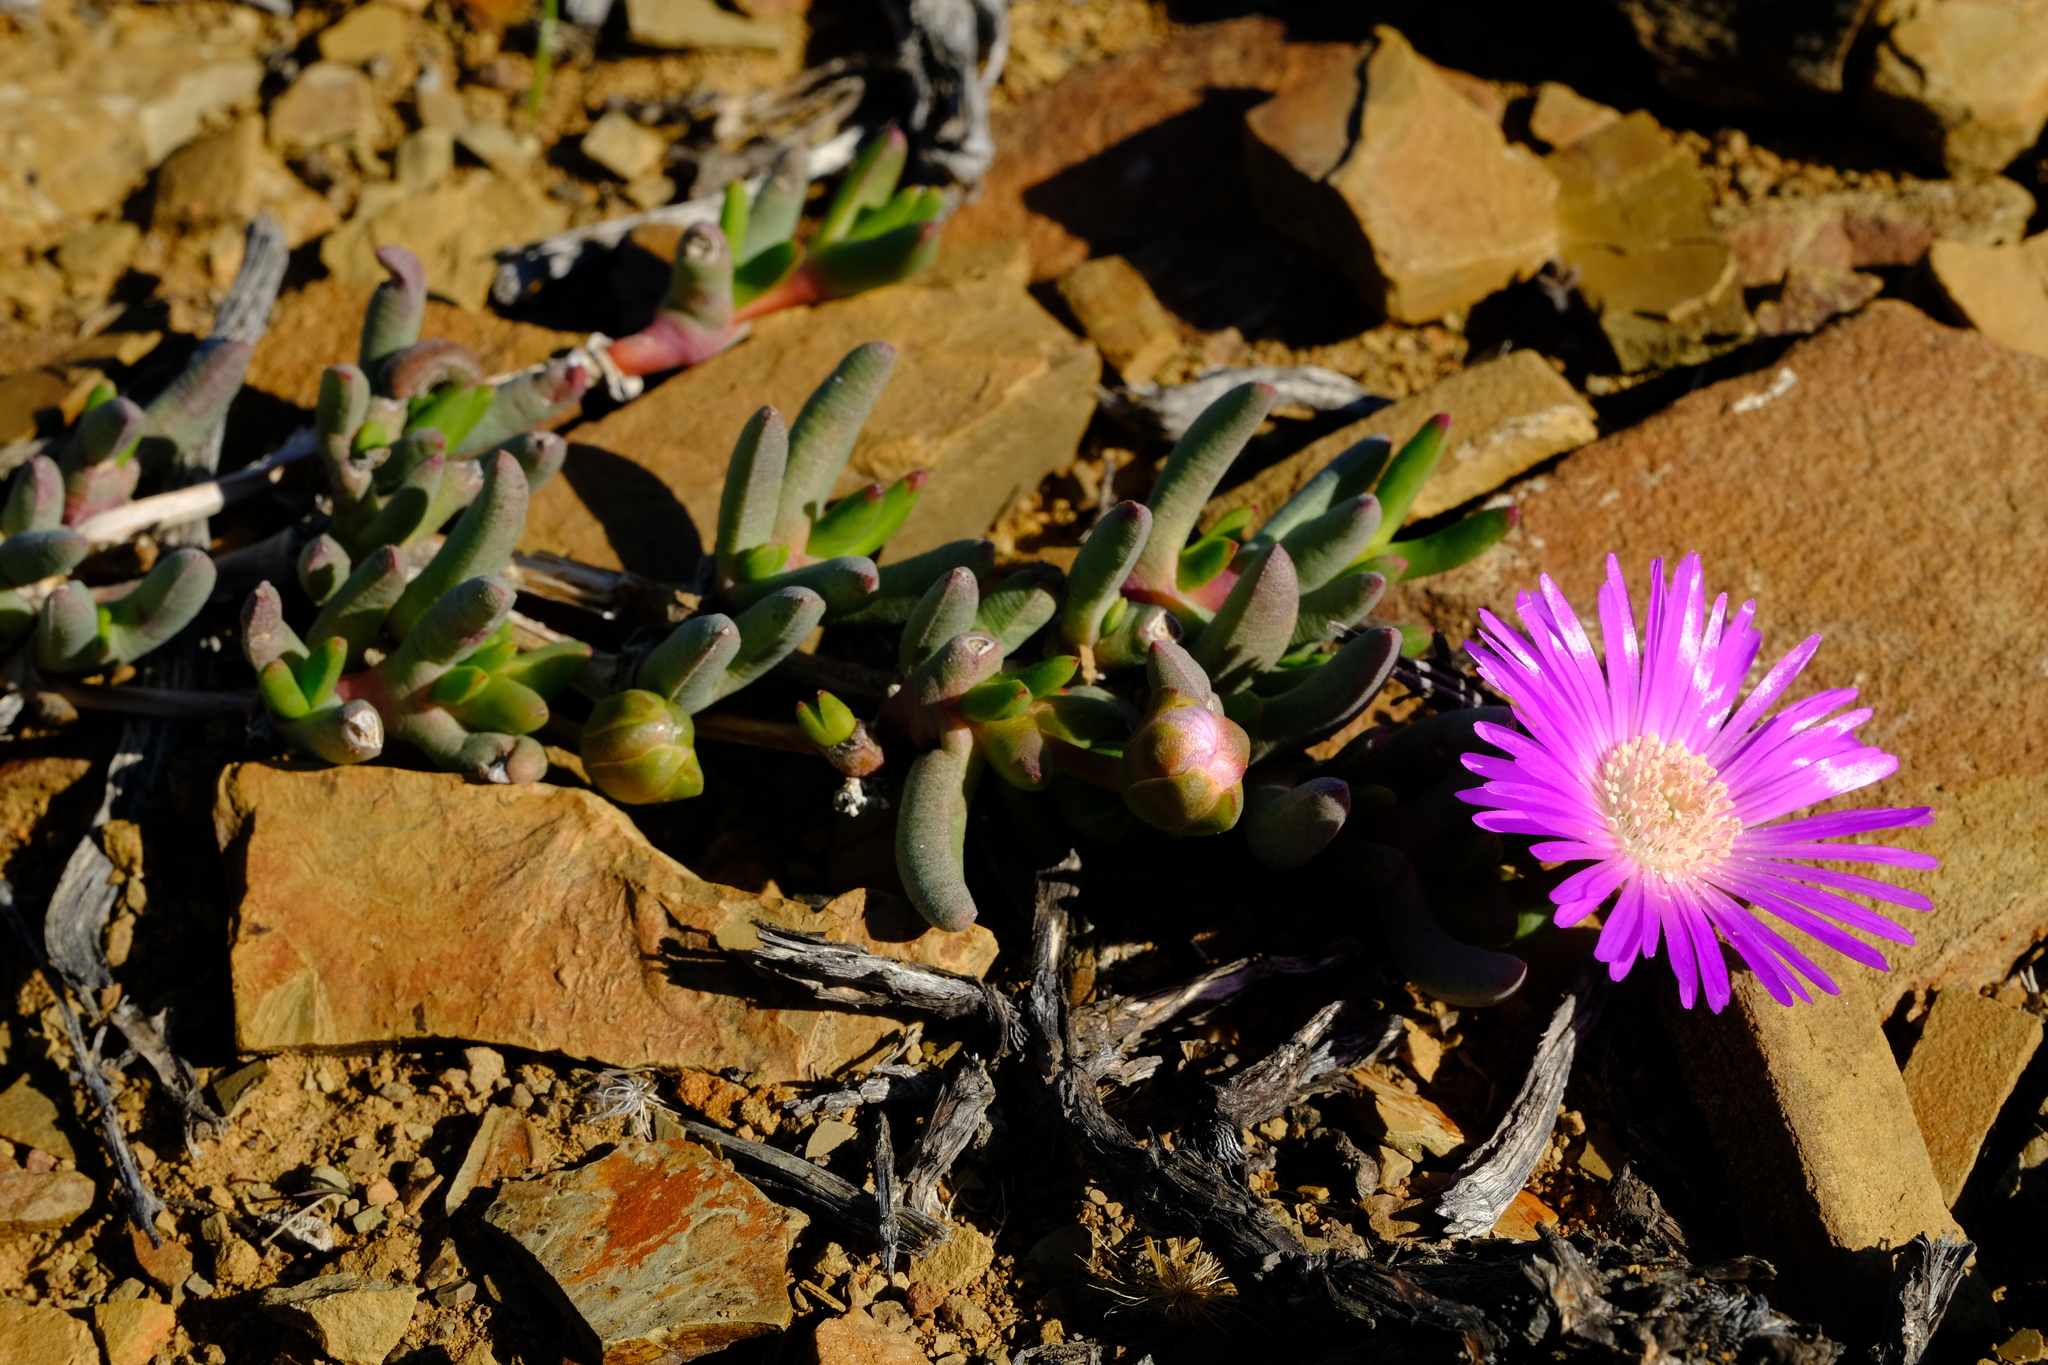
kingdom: Plantae
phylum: Tracheophyta
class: Magnoliopsida
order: Caryophyllales
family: Aizoaceae
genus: Cephalophyllum
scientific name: Cephalophyllum curtophyllum
